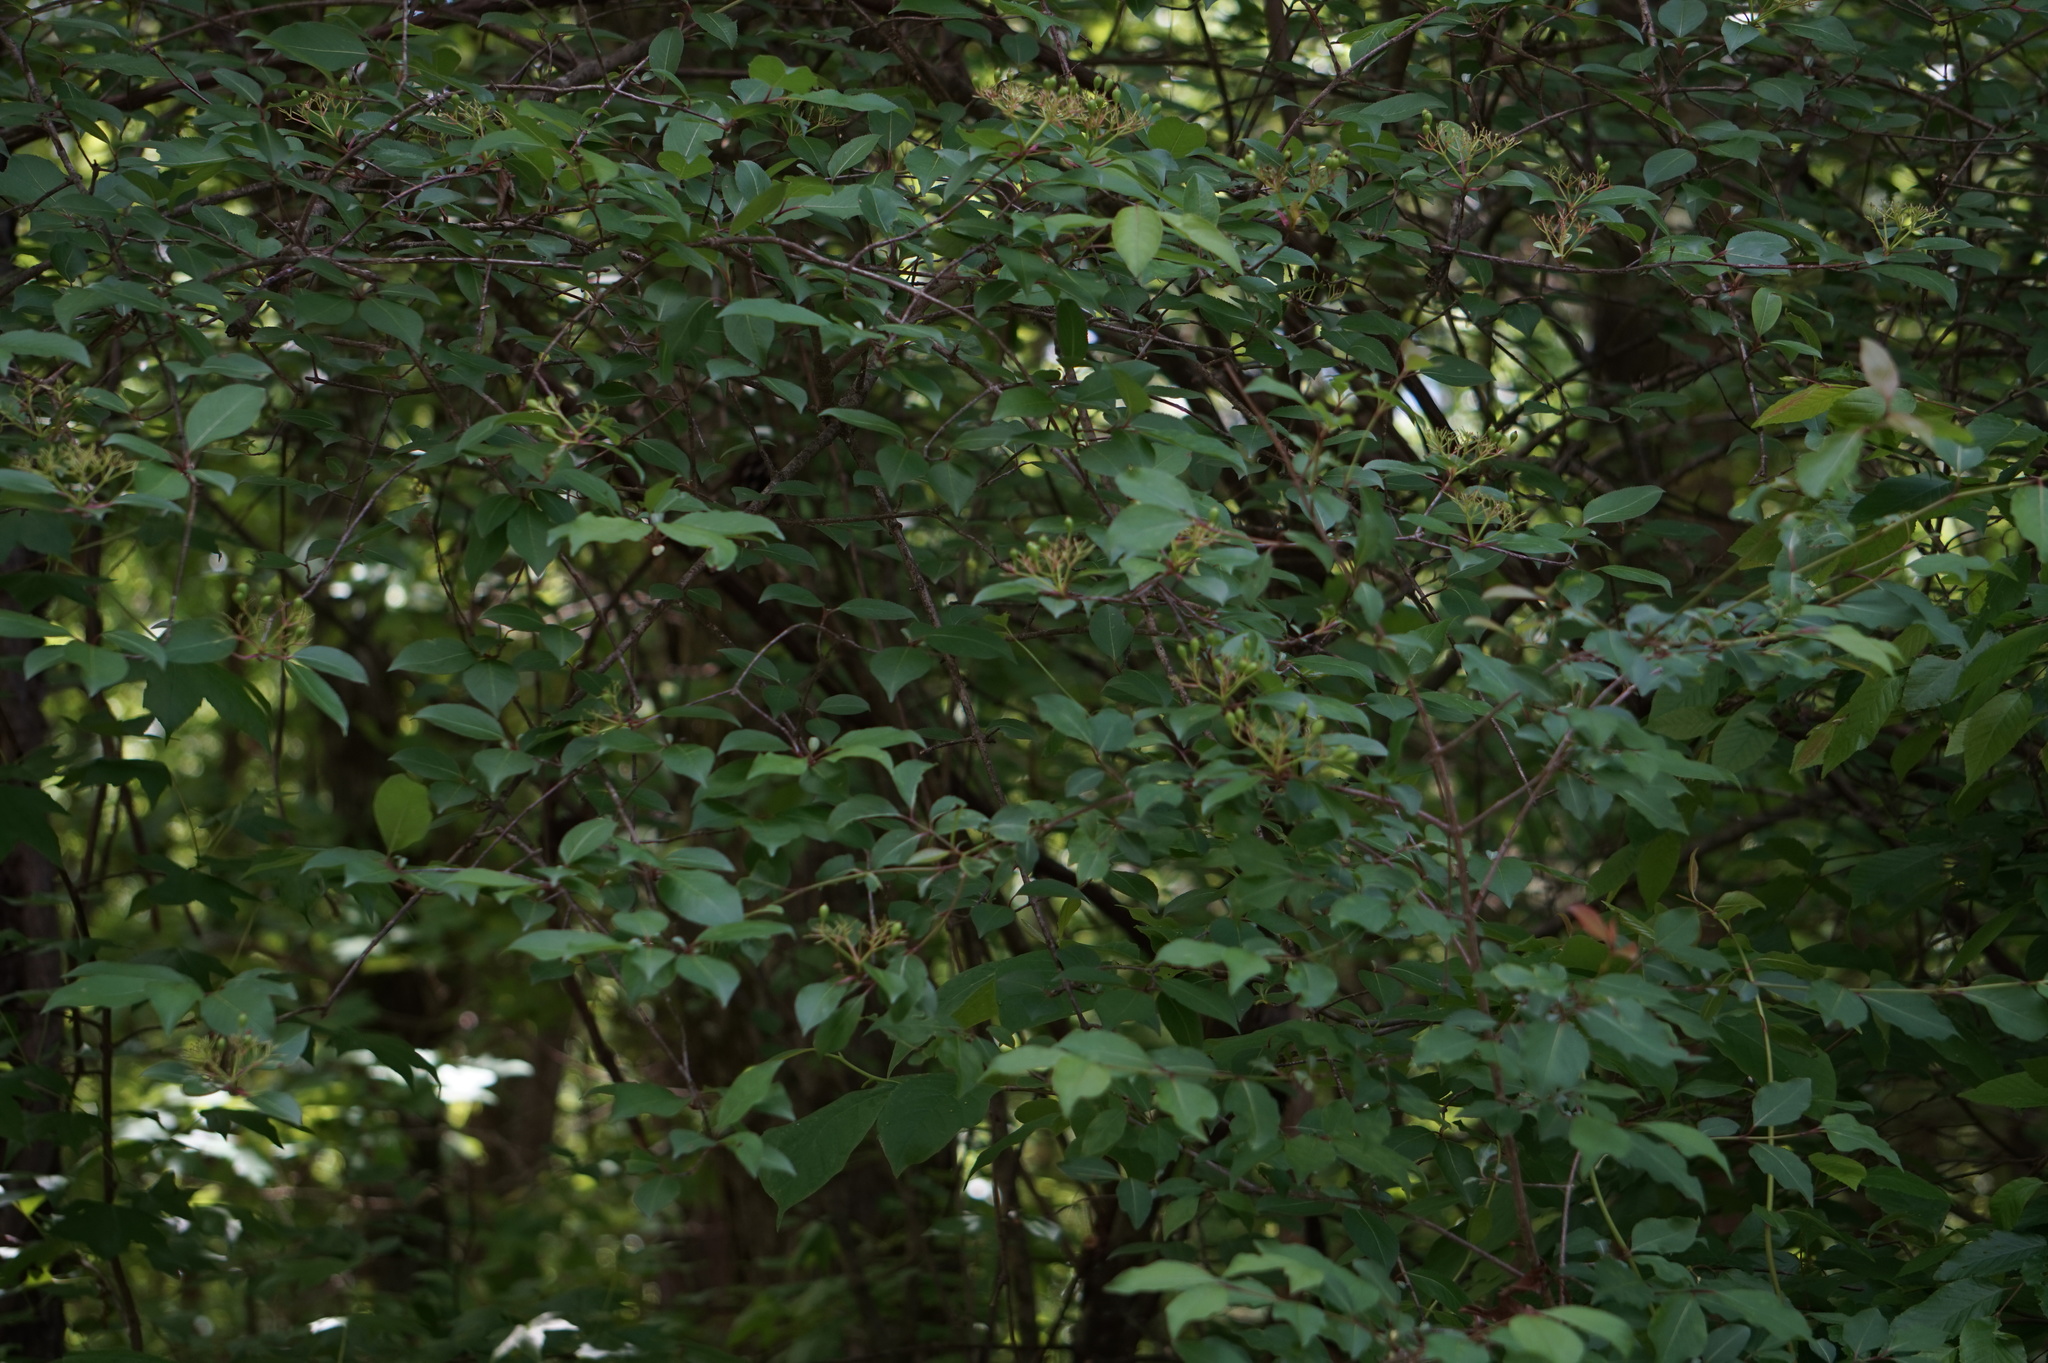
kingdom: Plantae
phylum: Tracheophyta
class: Magnoliopsida
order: Dipsacales
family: Viburnaceae
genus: Viburnum
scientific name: Viburnum prunifolium
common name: Black haw
